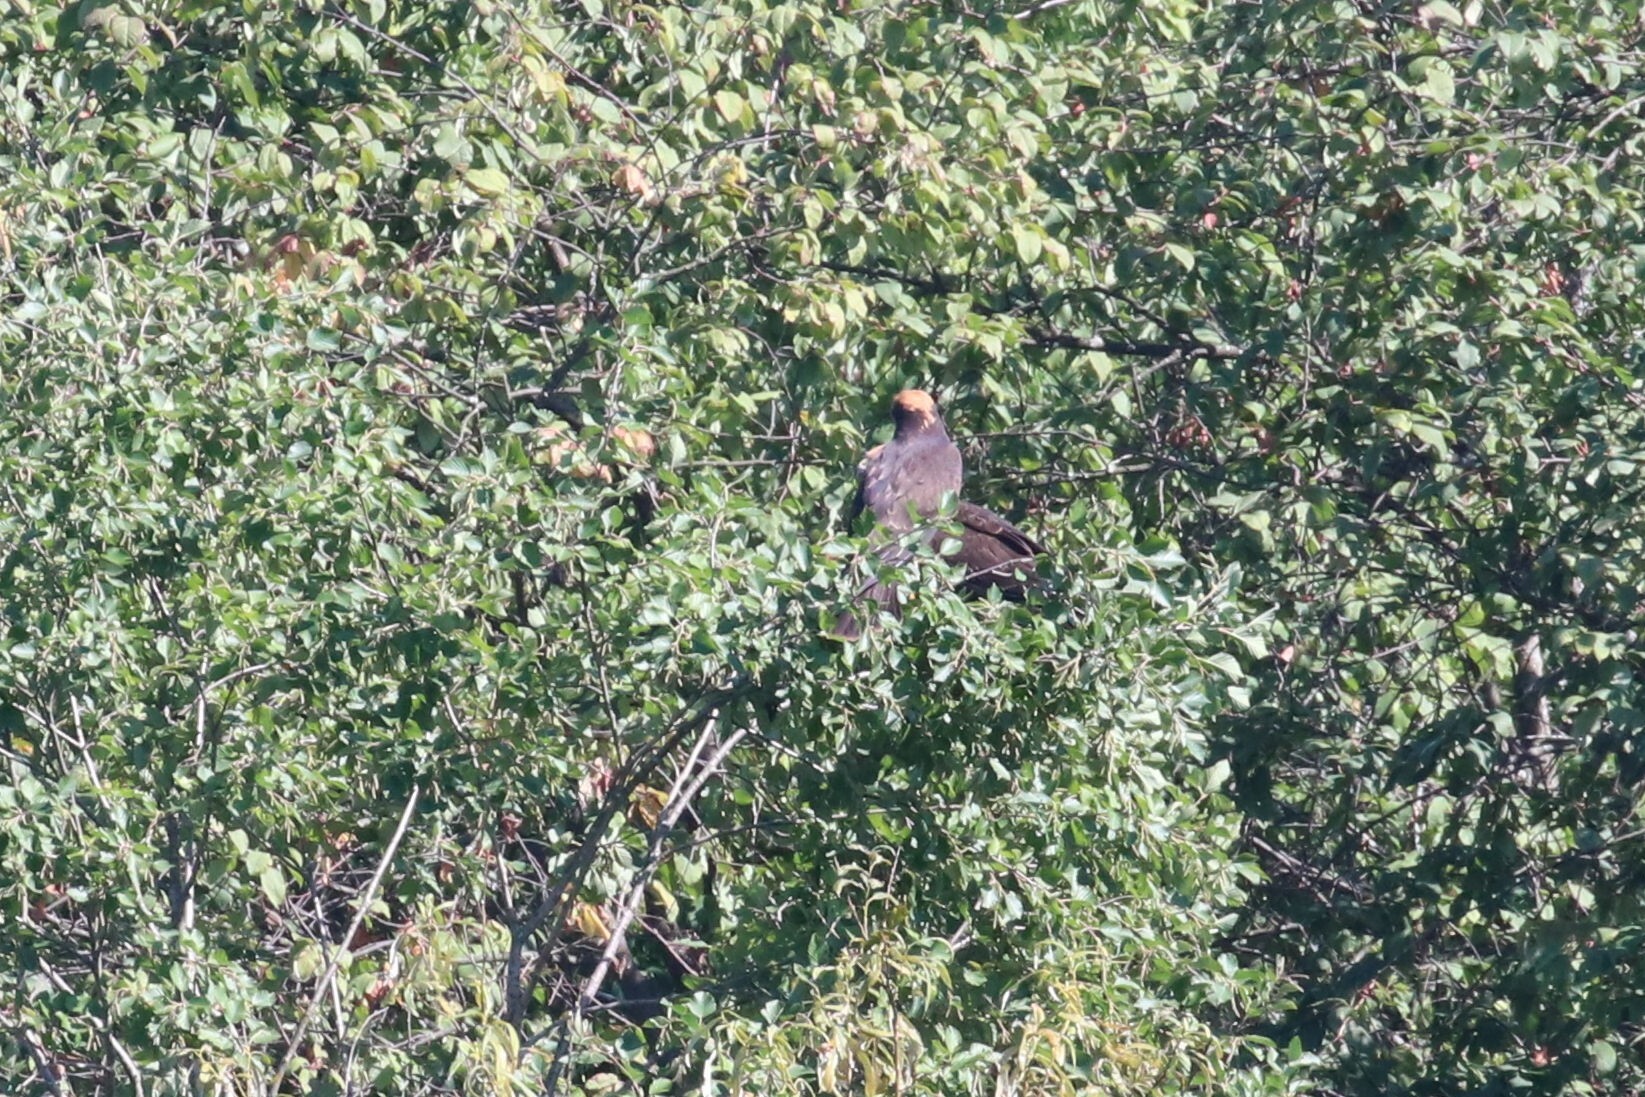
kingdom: Animalia
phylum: Chordata
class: Aves
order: Accipitriformes
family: Accipitridae
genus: Circus
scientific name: Circus aeruginosus
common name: Western marsh harrier
